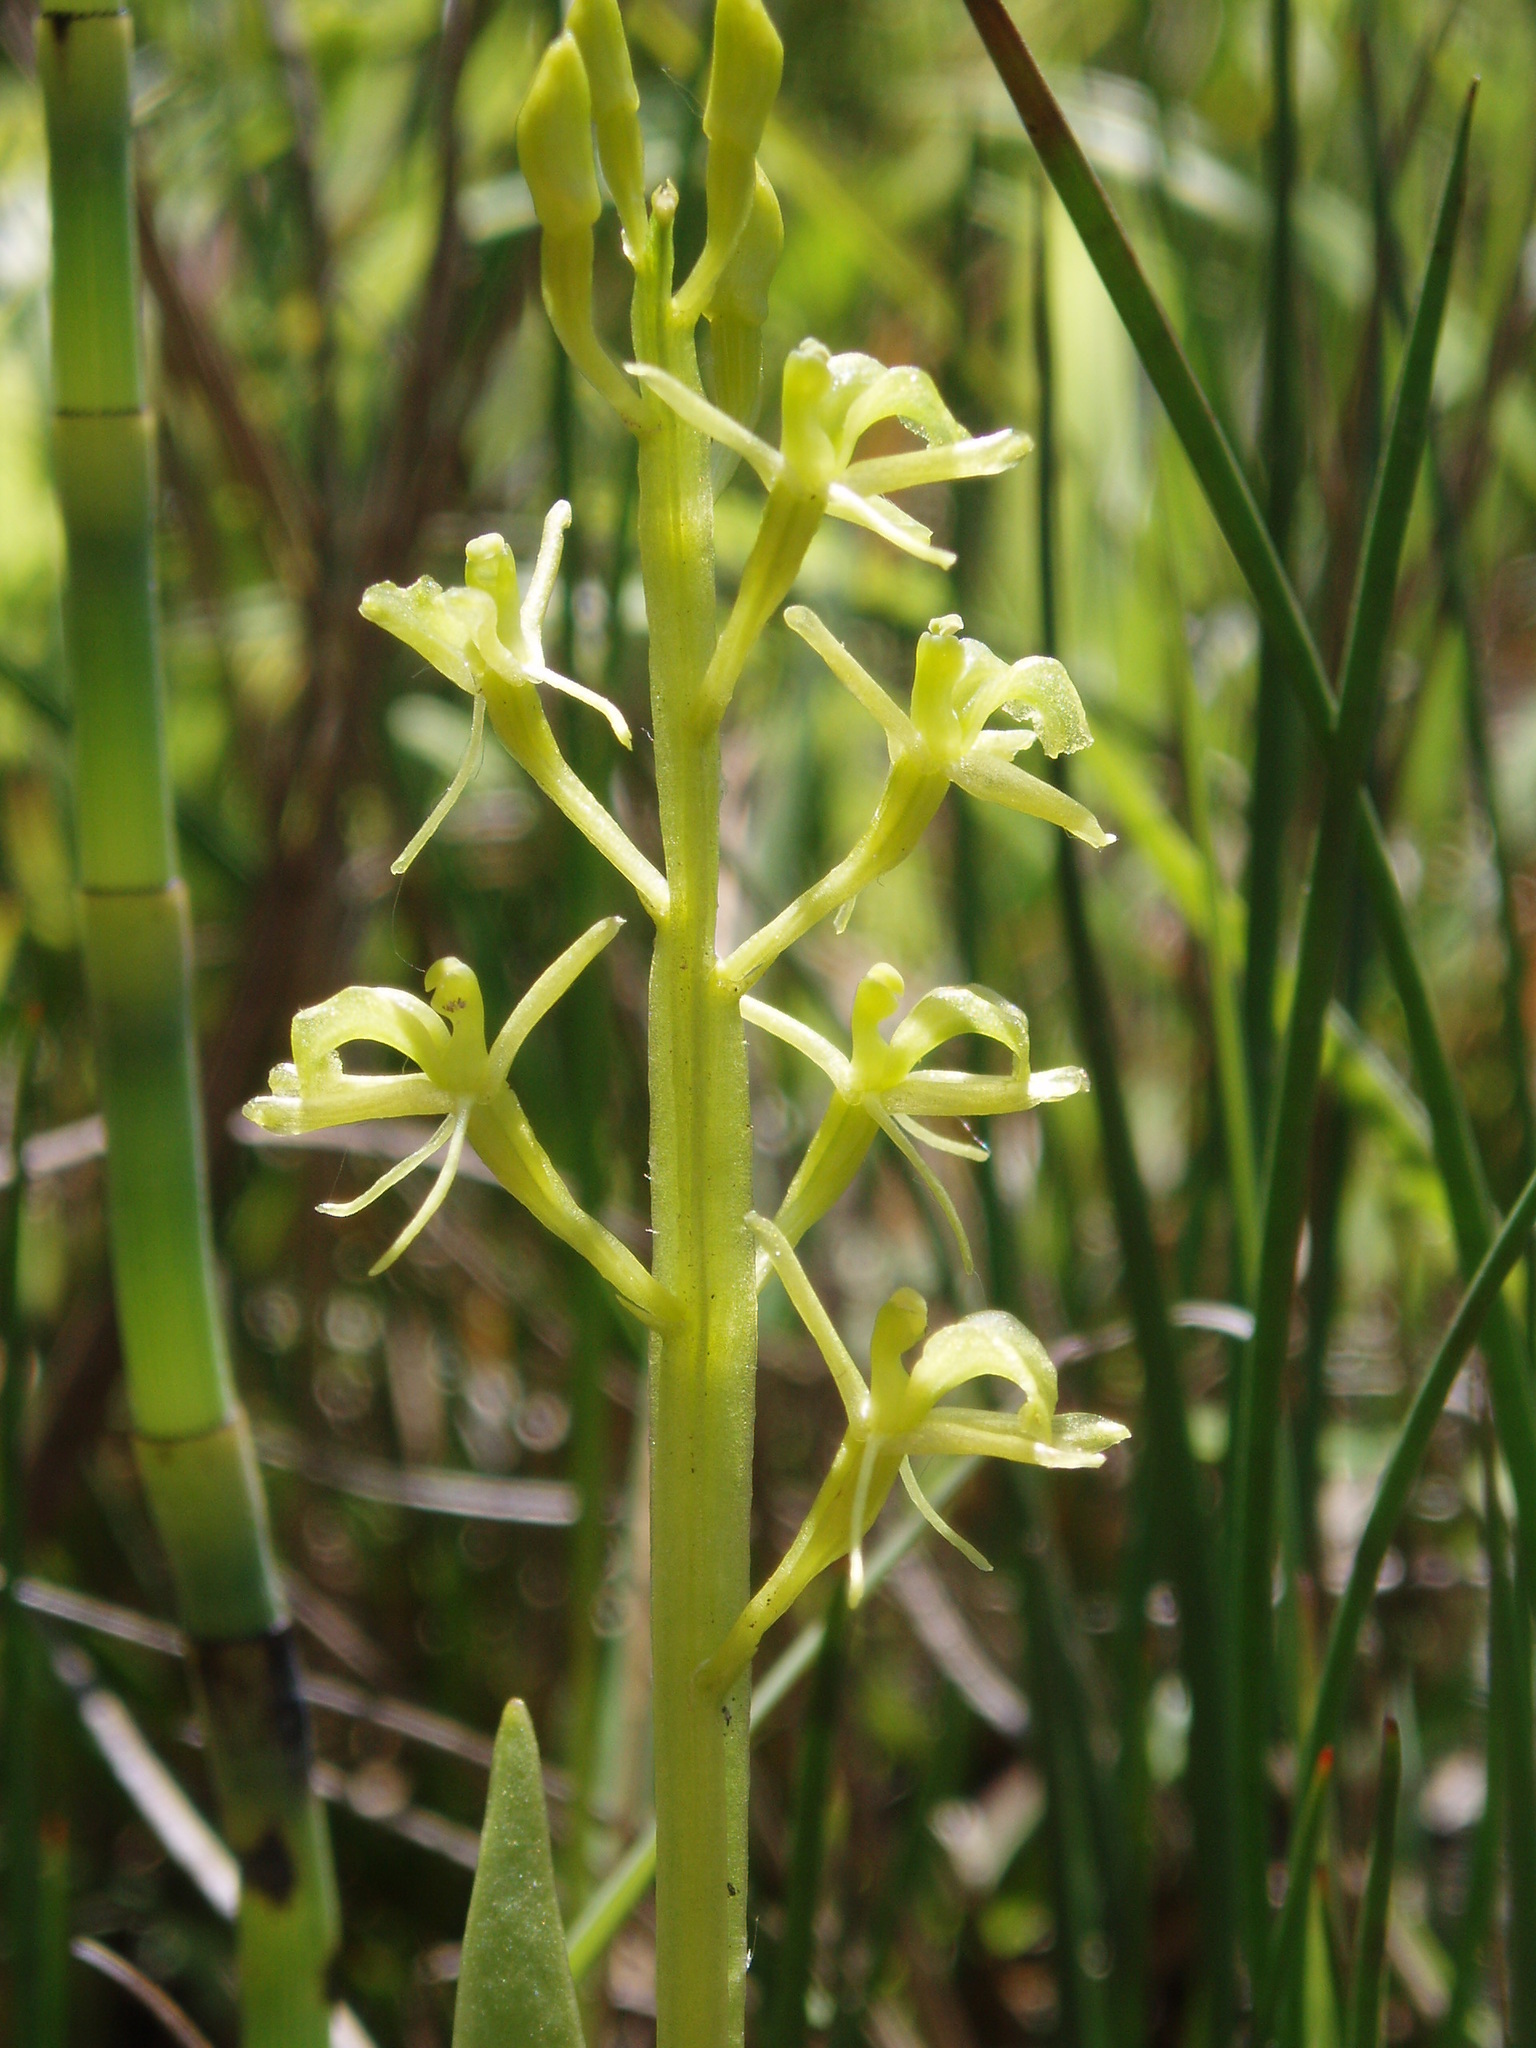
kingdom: Animalia
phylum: Arthropoda
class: Insecta
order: Coleoptera
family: Curculionidae
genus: Liparis
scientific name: Liparis loeselii
